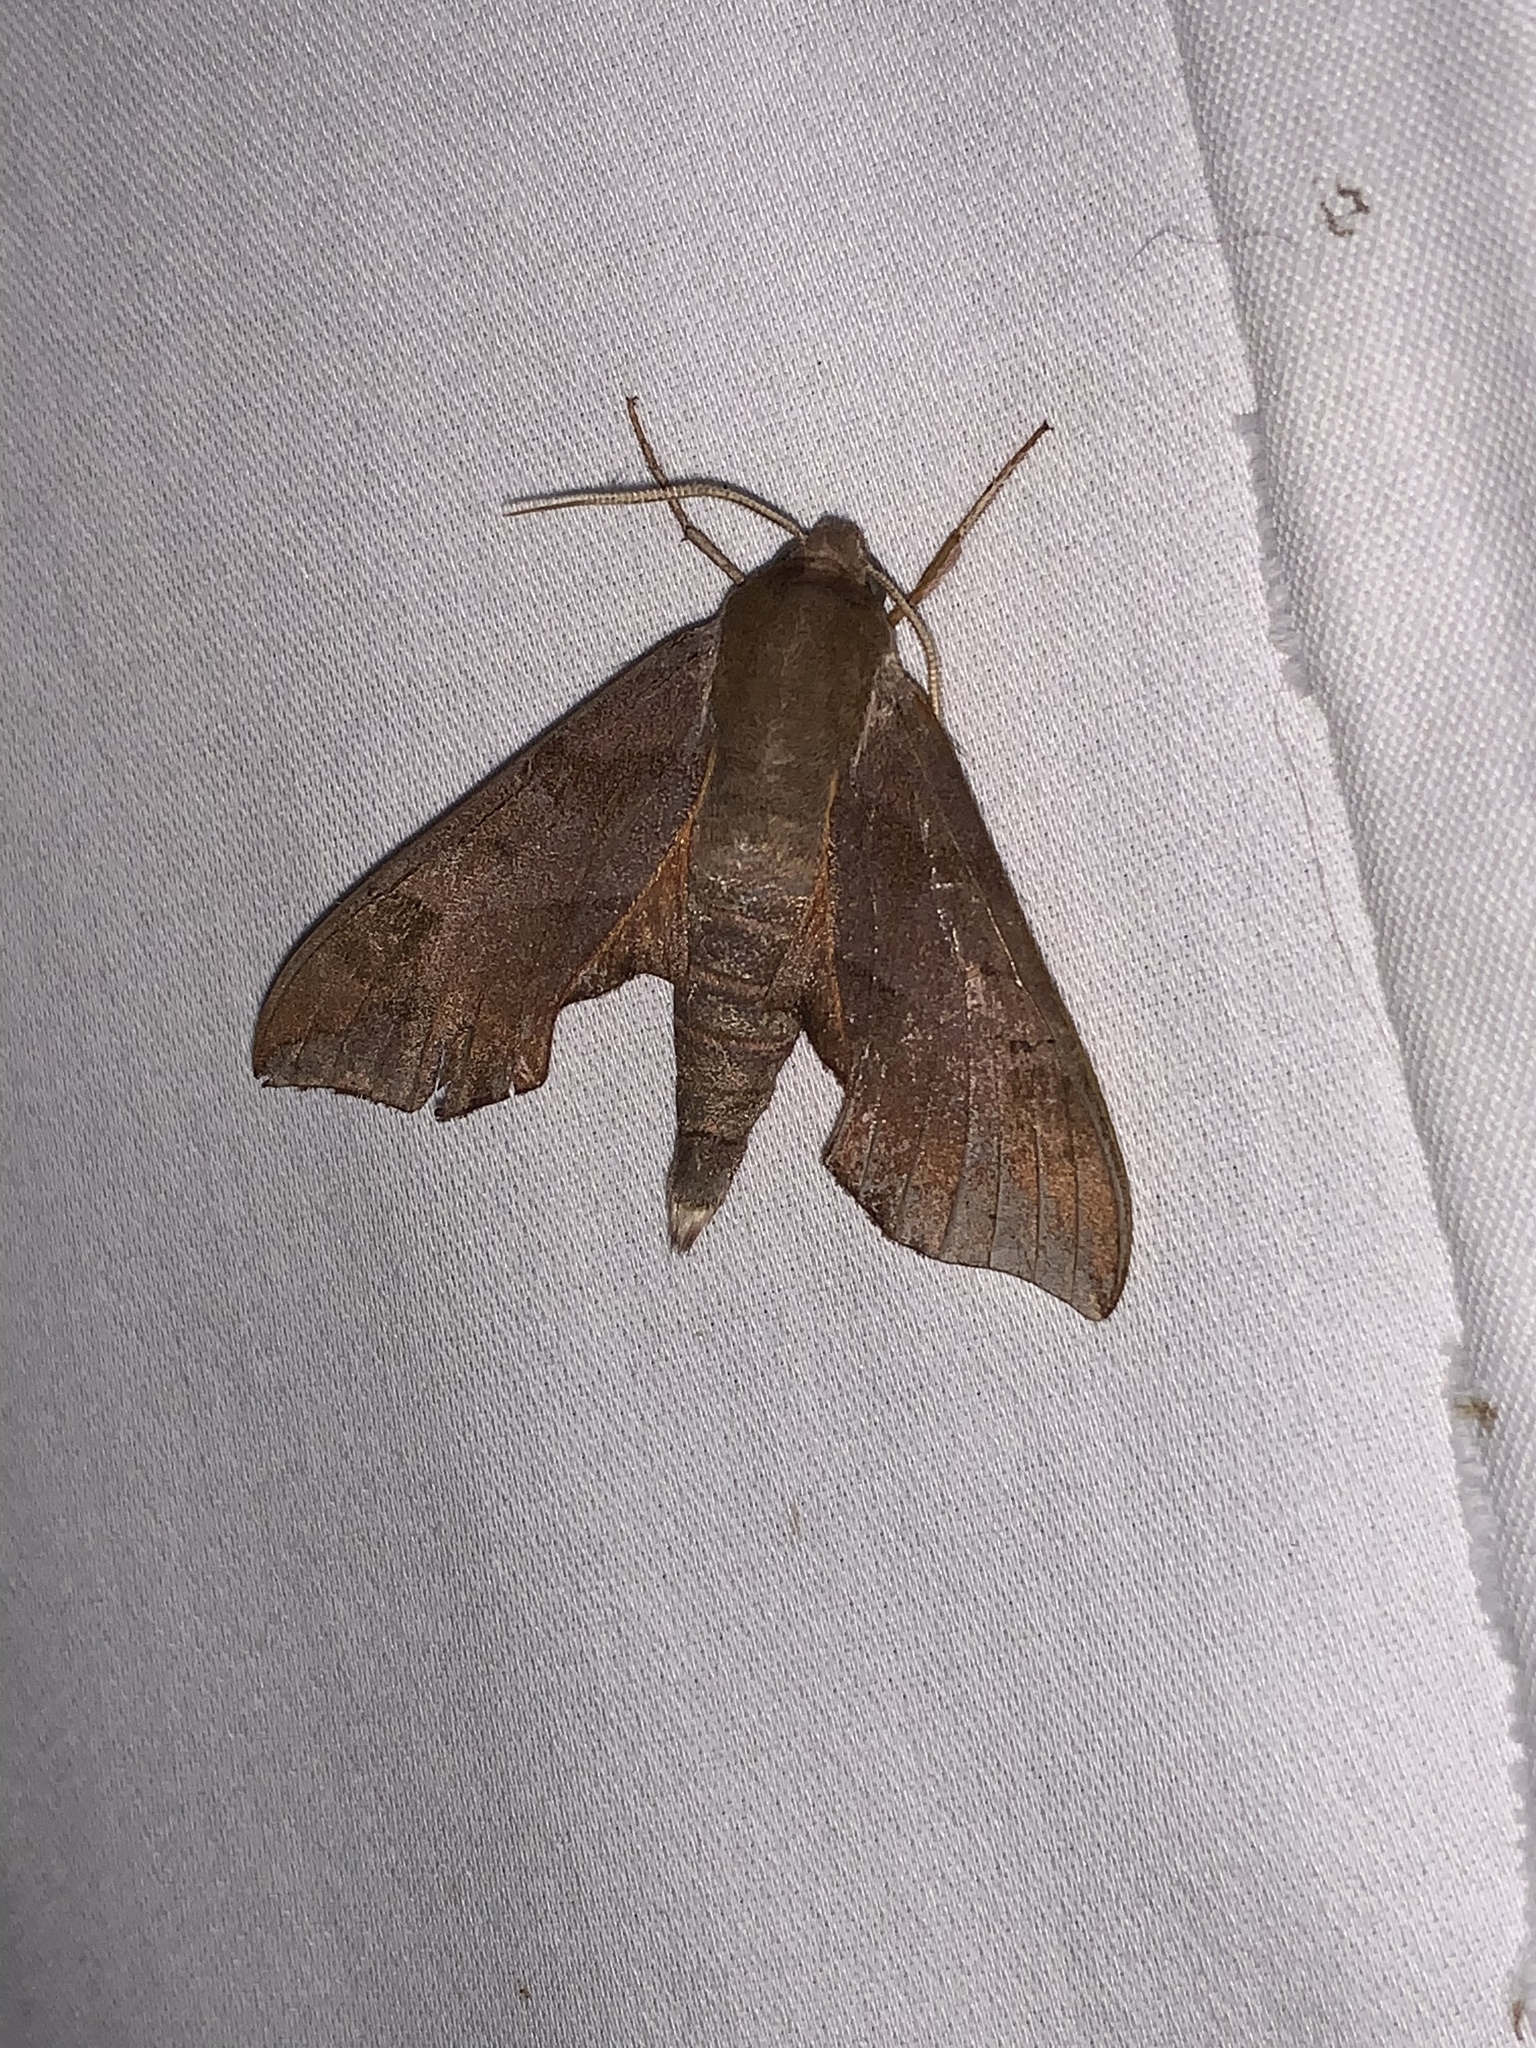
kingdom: Animalia
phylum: Arthropoda
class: Insecta
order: Lepidoptera
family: Sphingidae
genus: Darapsa
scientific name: Darapsa myron
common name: Hog sphinx
